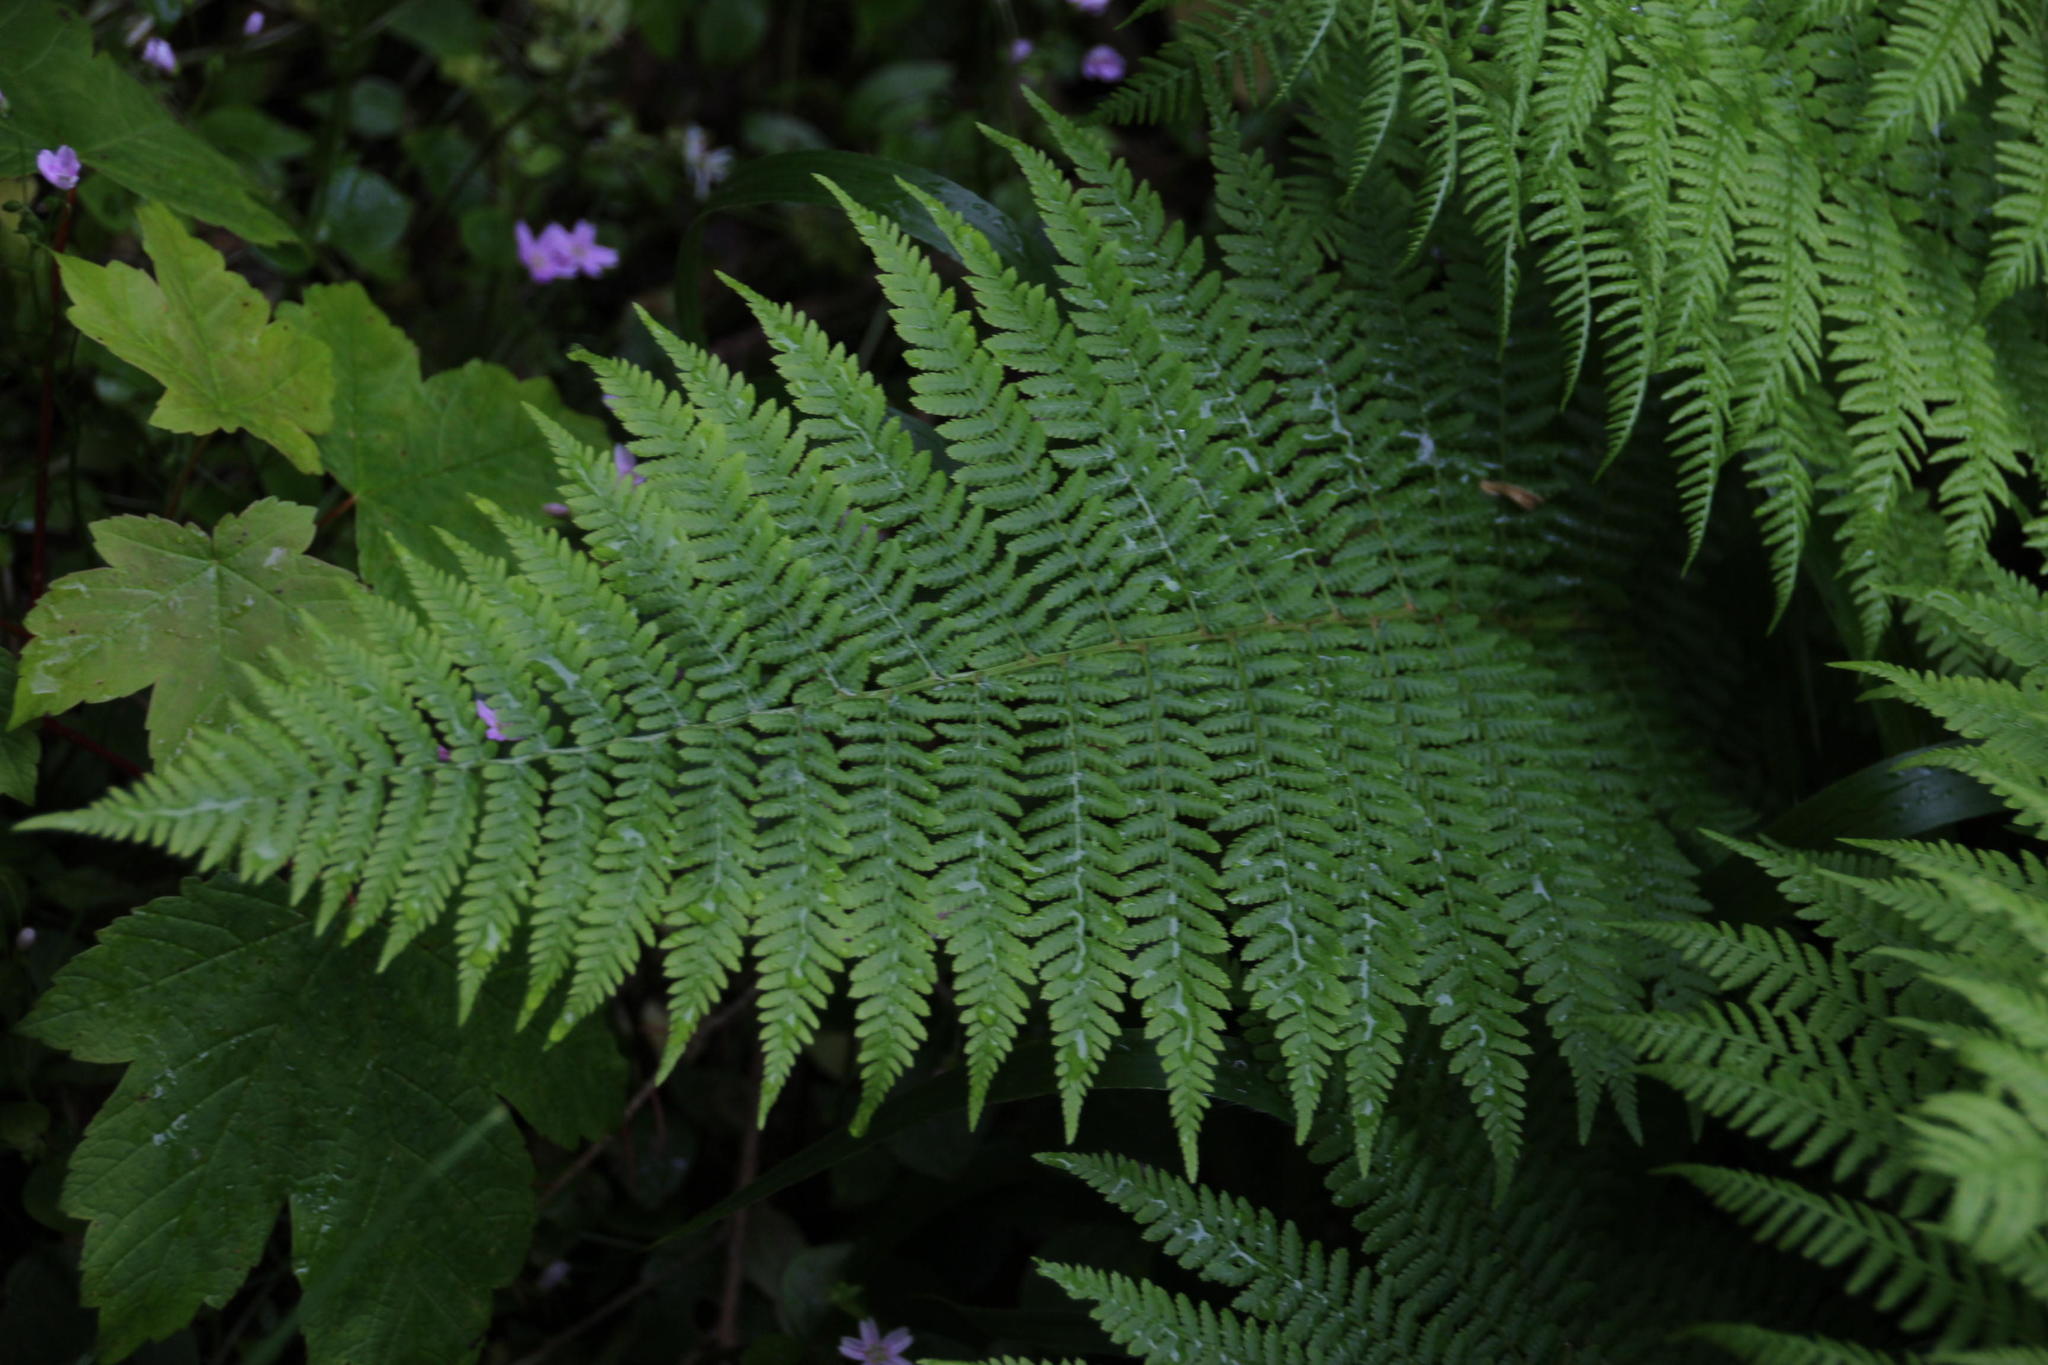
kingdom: Plantae
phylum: Tracheophyta
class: Polypodiopsida
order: Polypodiales
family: Dryopteridaceae
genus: Dryopteris
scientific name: Dryopteris filix-mas
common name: Male fern
